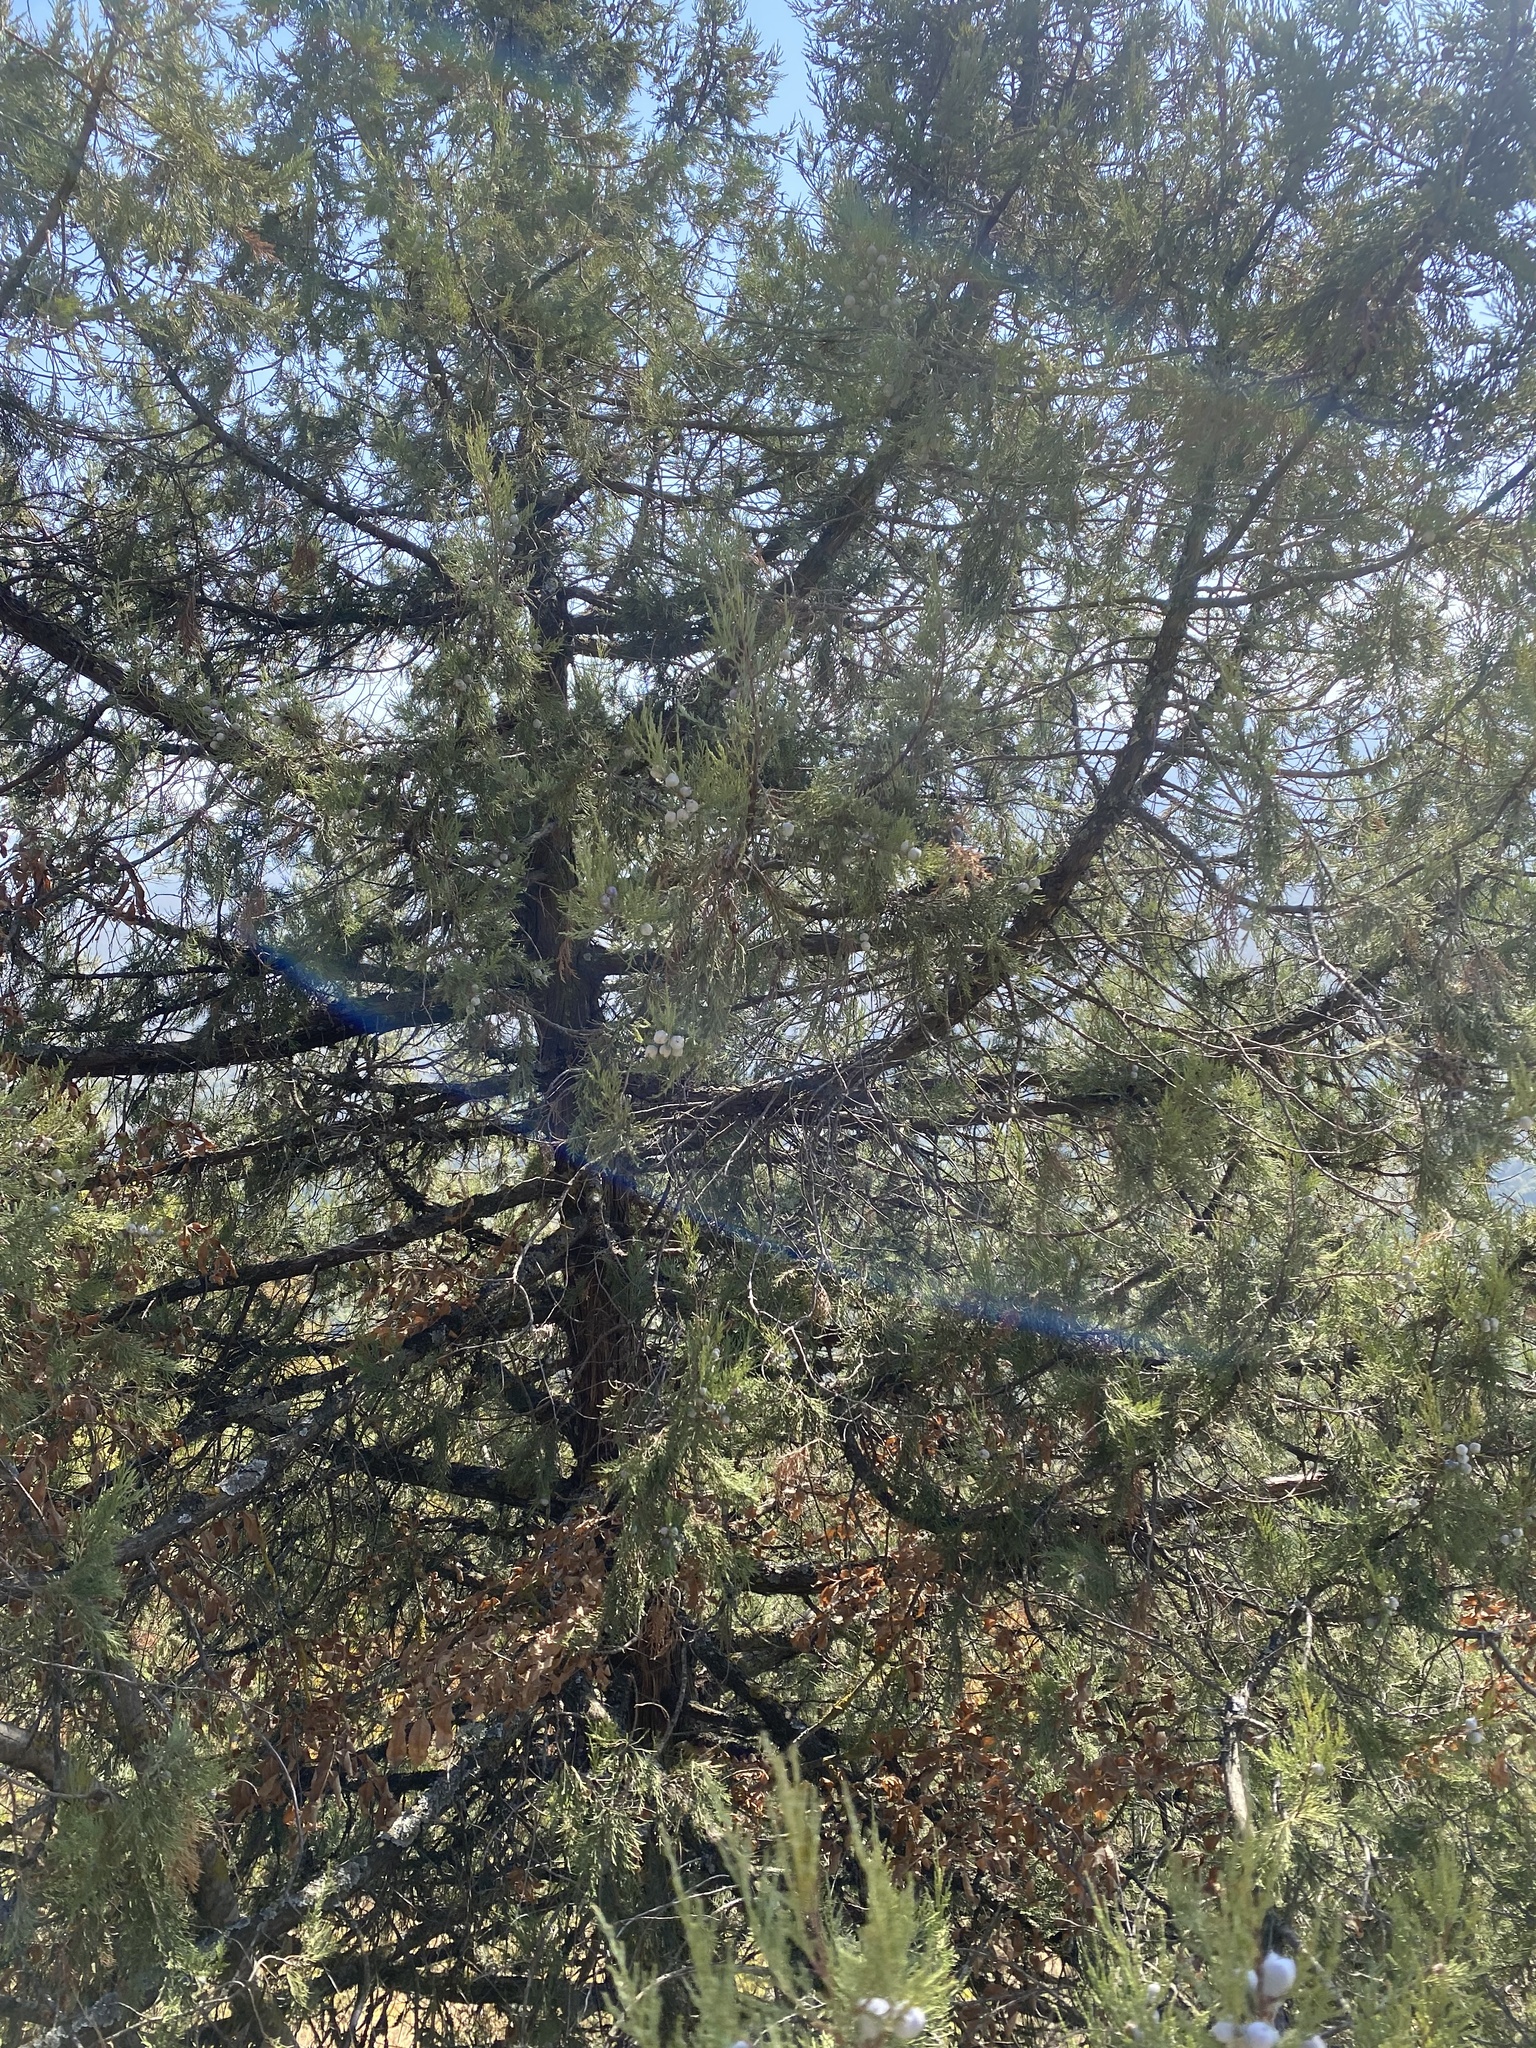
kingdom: Plantae
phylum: Tracheophyta
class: Pinopsida
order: Pinales
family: Cupressaceae
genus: Juniperus
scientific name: Juniperus excelsa
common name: Crimean juniper
